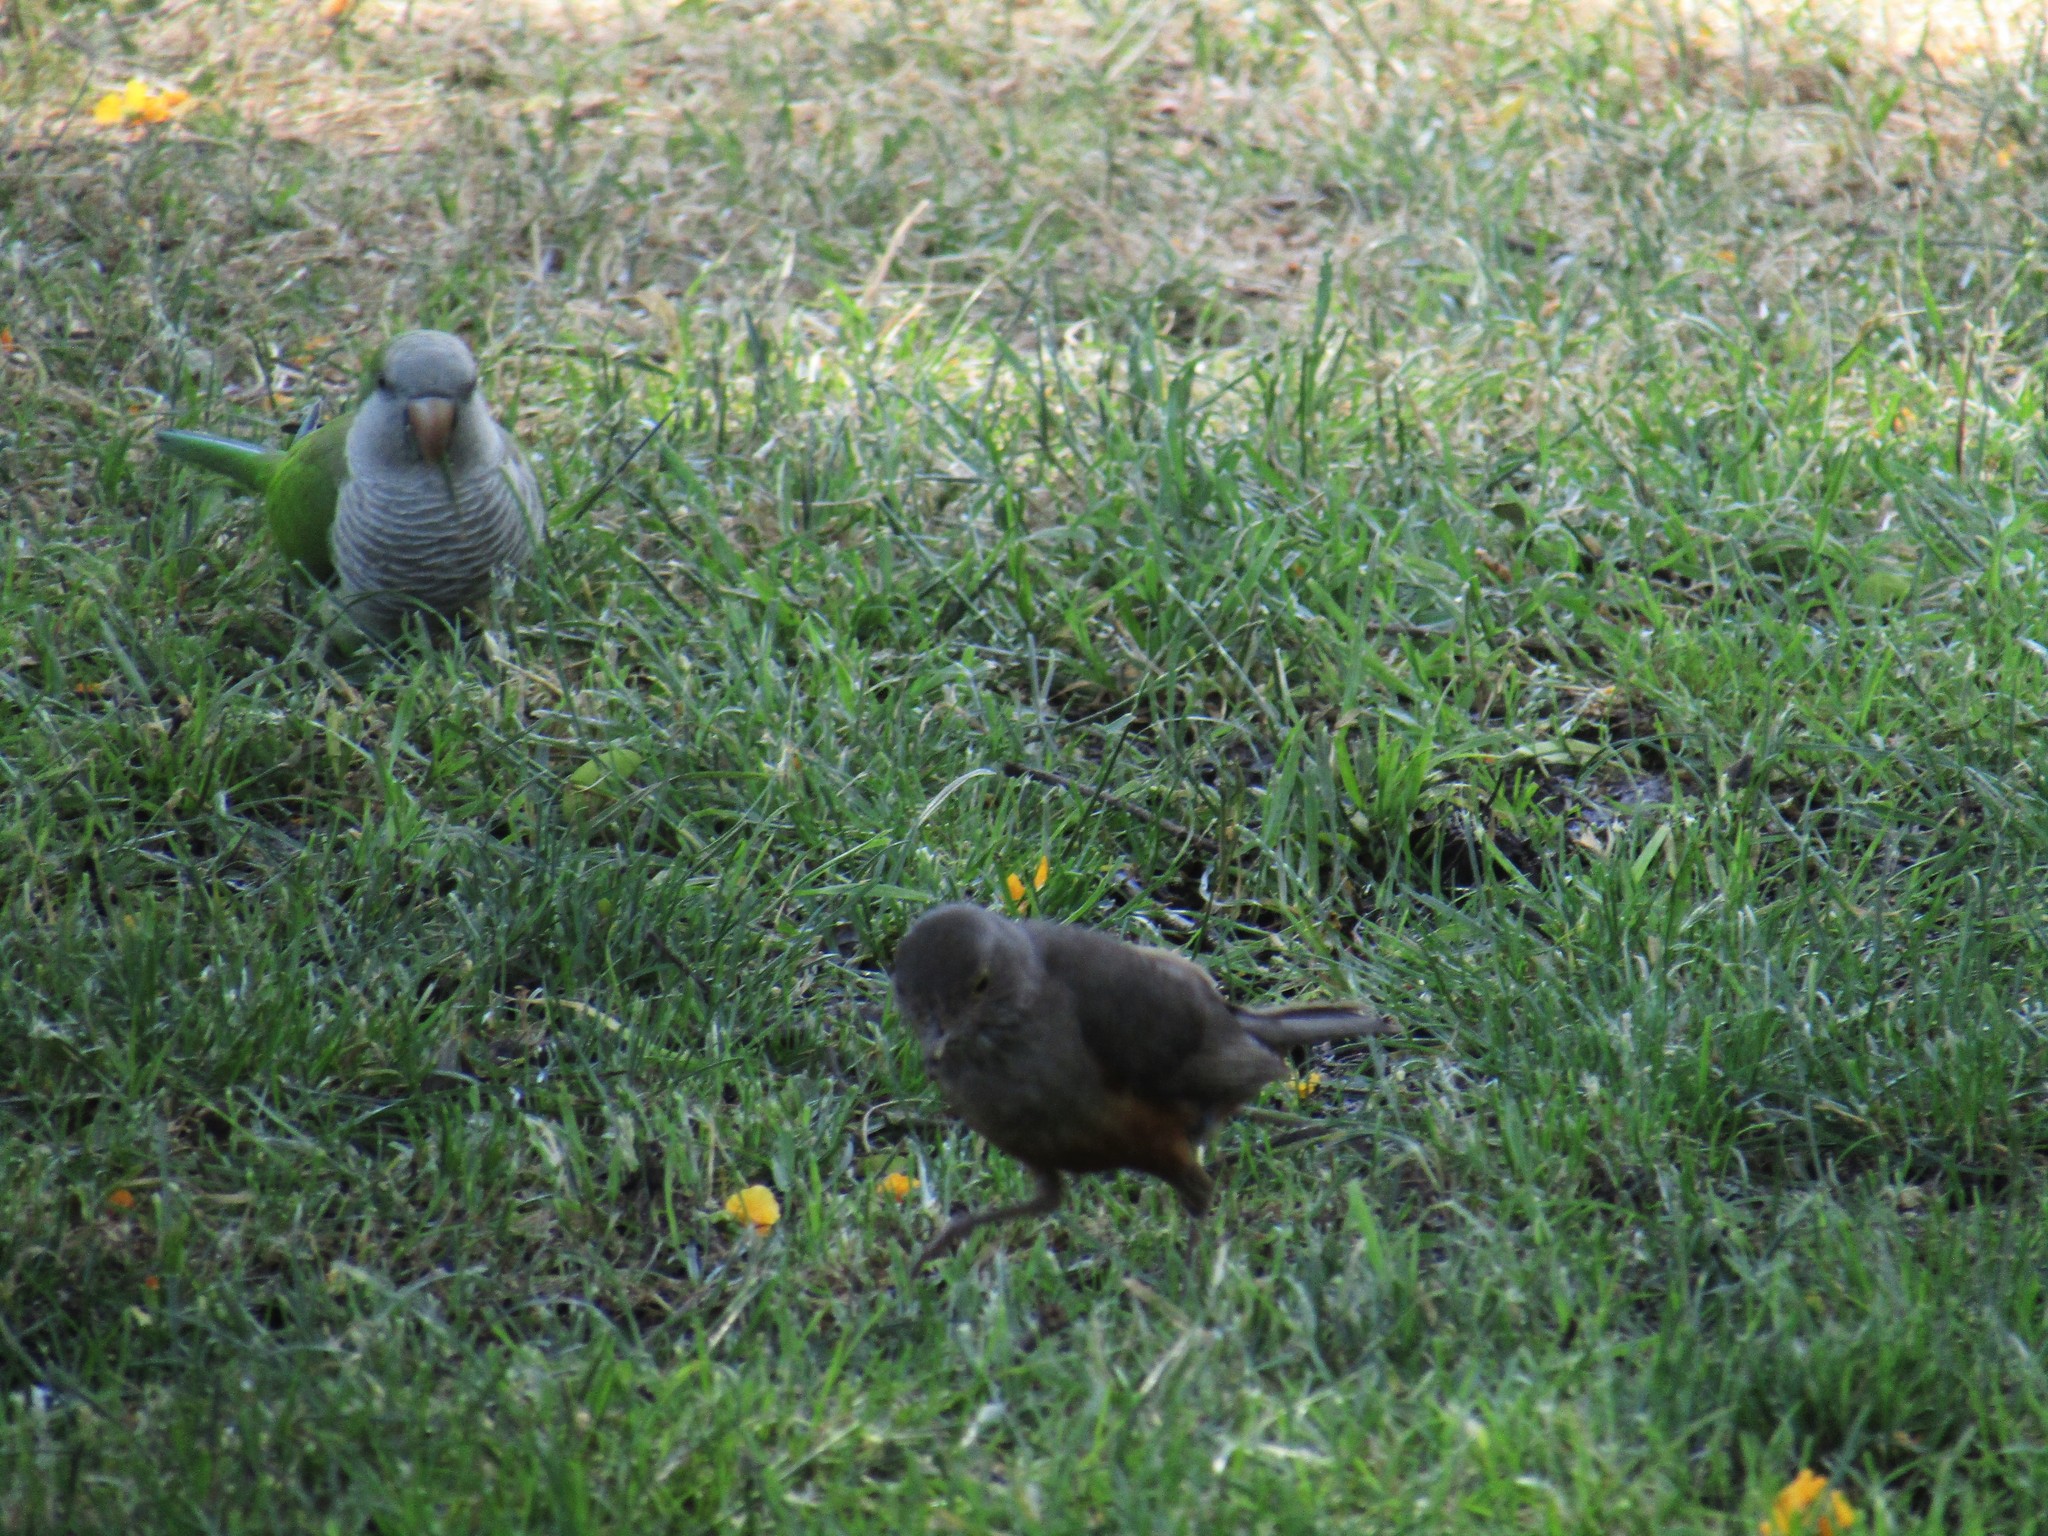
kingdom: Animalia
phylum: Chordata
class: Aves
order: Psittaciformes
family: Psittacidae
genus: Myiopsitta
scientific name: Myiopsitta monachus
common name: Monk parakeet
